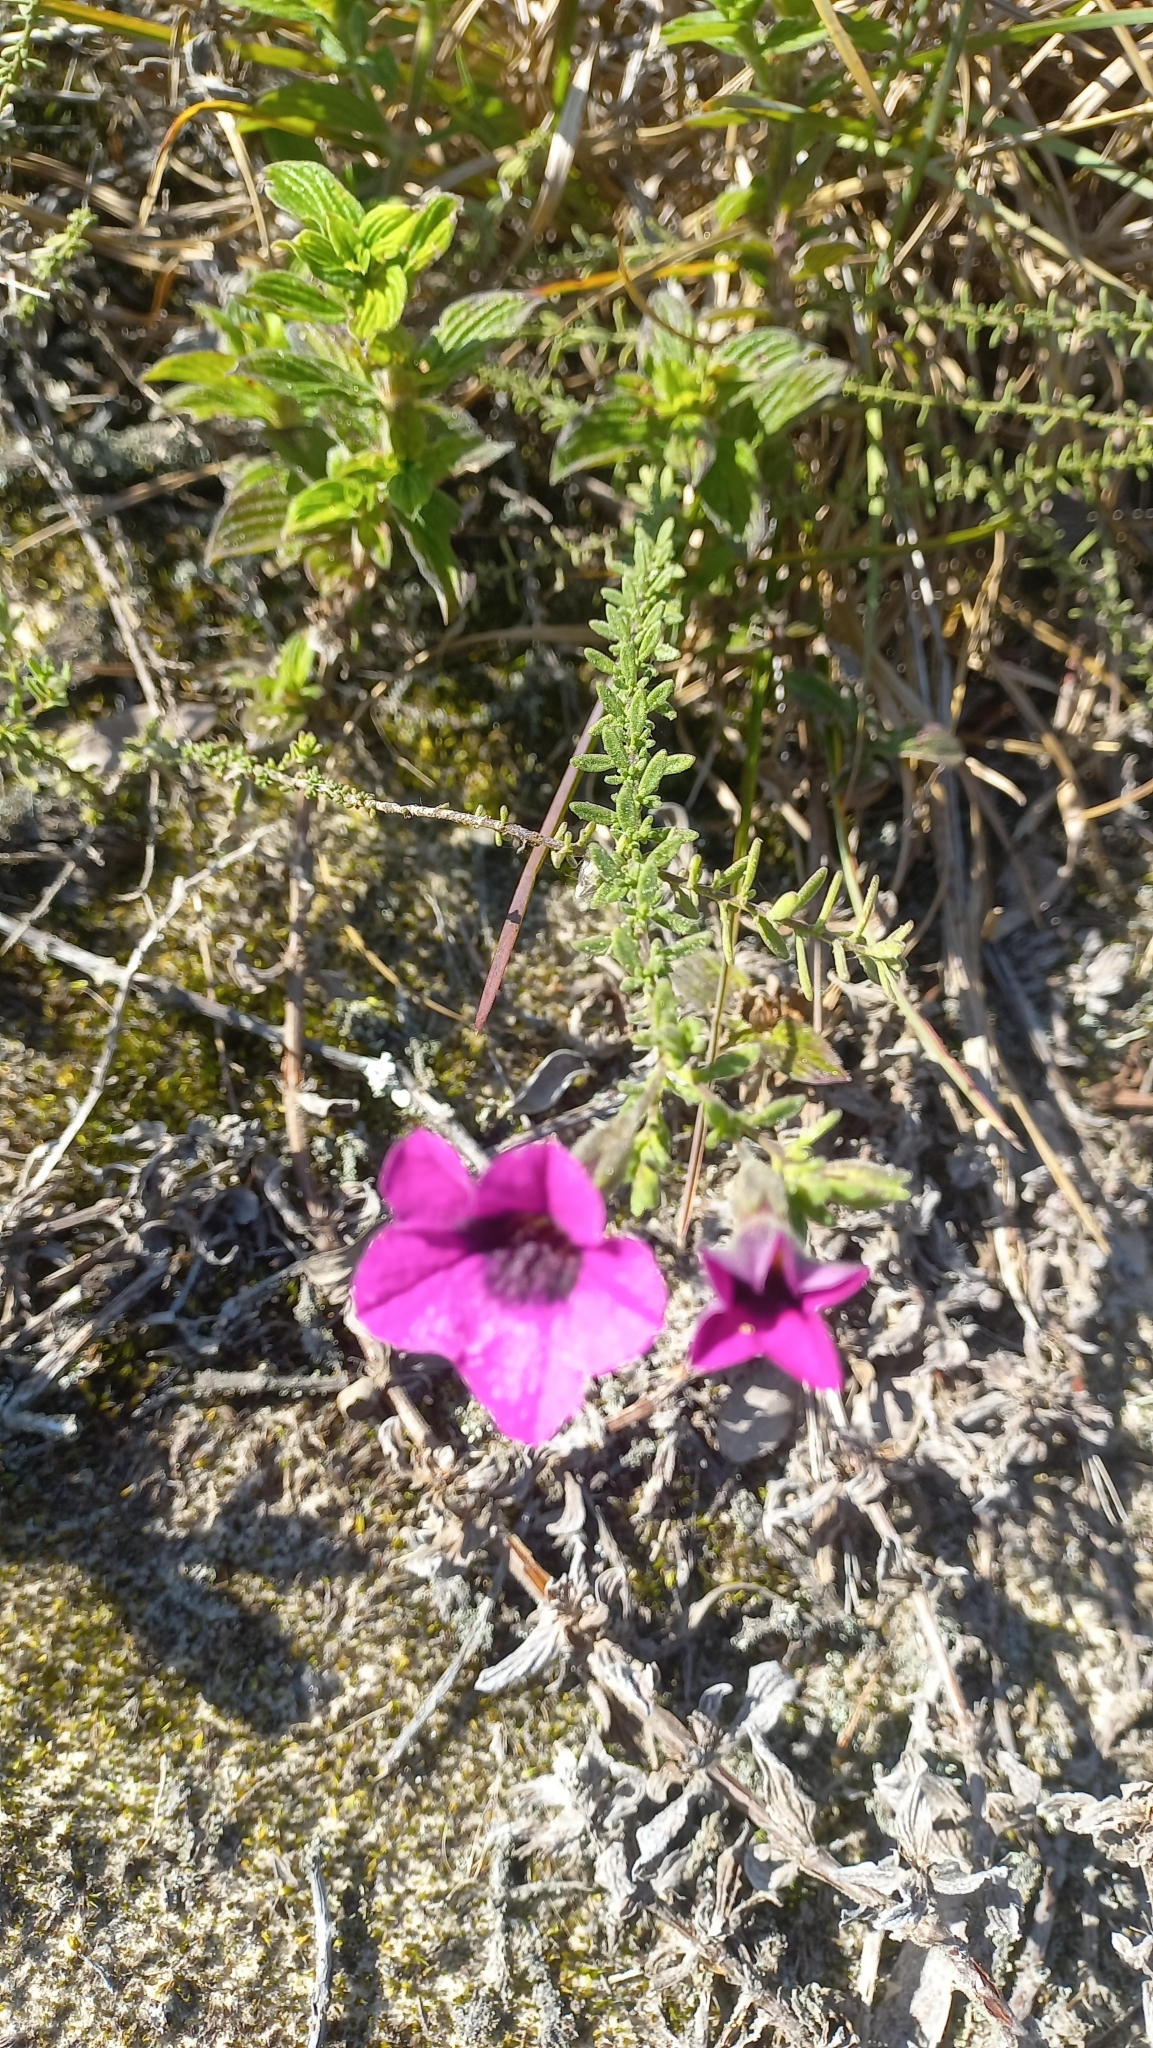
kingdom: Plantae
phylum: Tracheophyta
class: Magnoliopsida
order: Solanales
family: Solanaceae
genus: Calibrachoa
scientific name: Calibrachoa heterophylla
